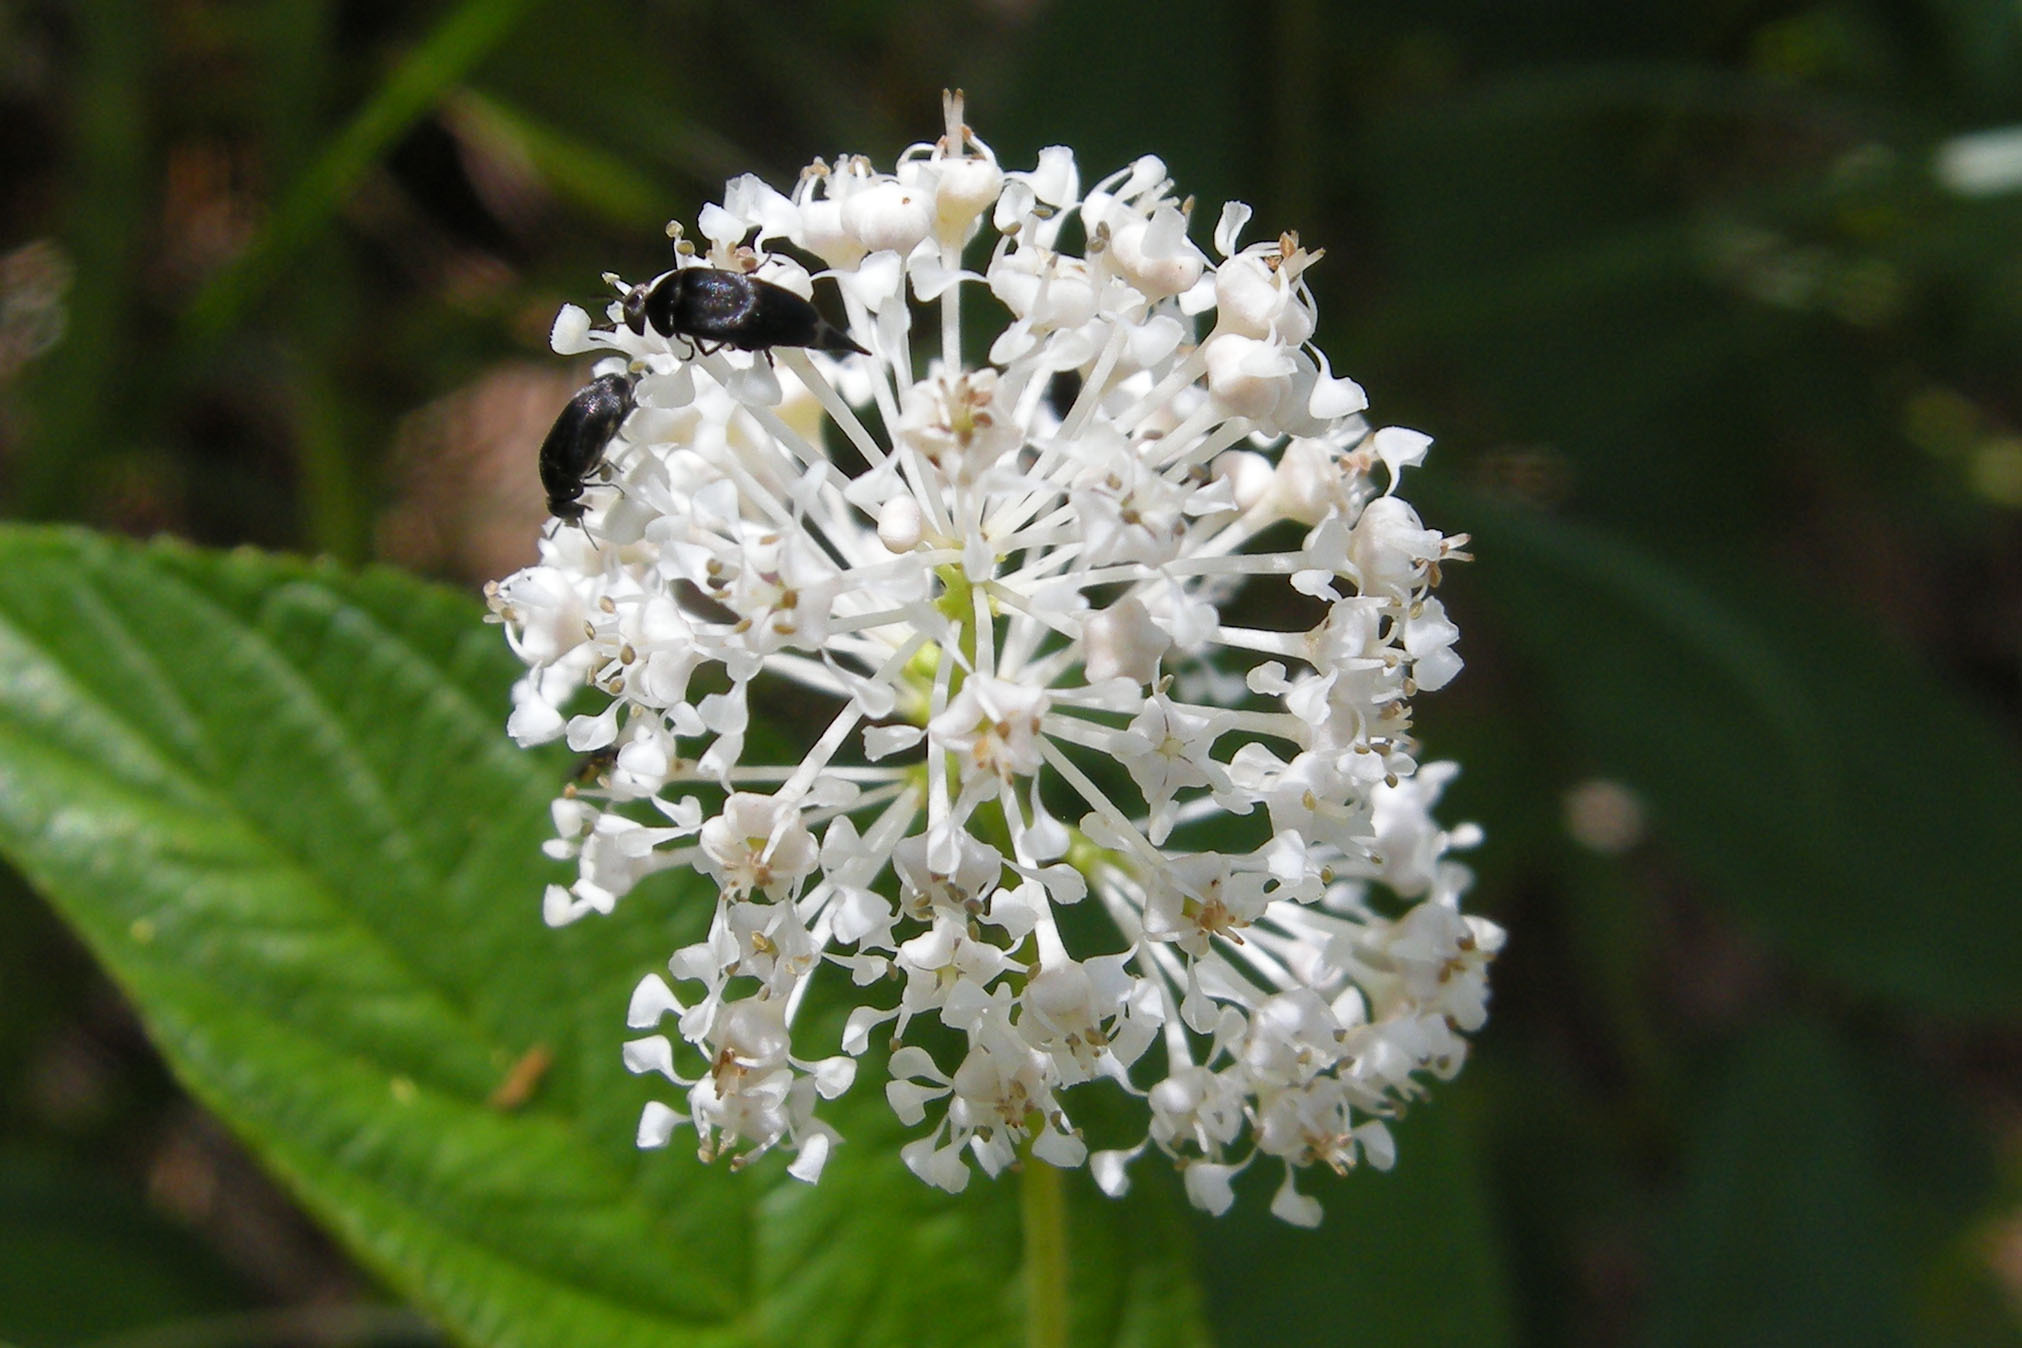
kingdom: Plantae
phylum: Tracheophyta
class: Magnoliopsida
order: Rosales
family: Rhamnaceae
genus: Ceanothus
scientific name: Ceanothus americanus
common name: Redroot
